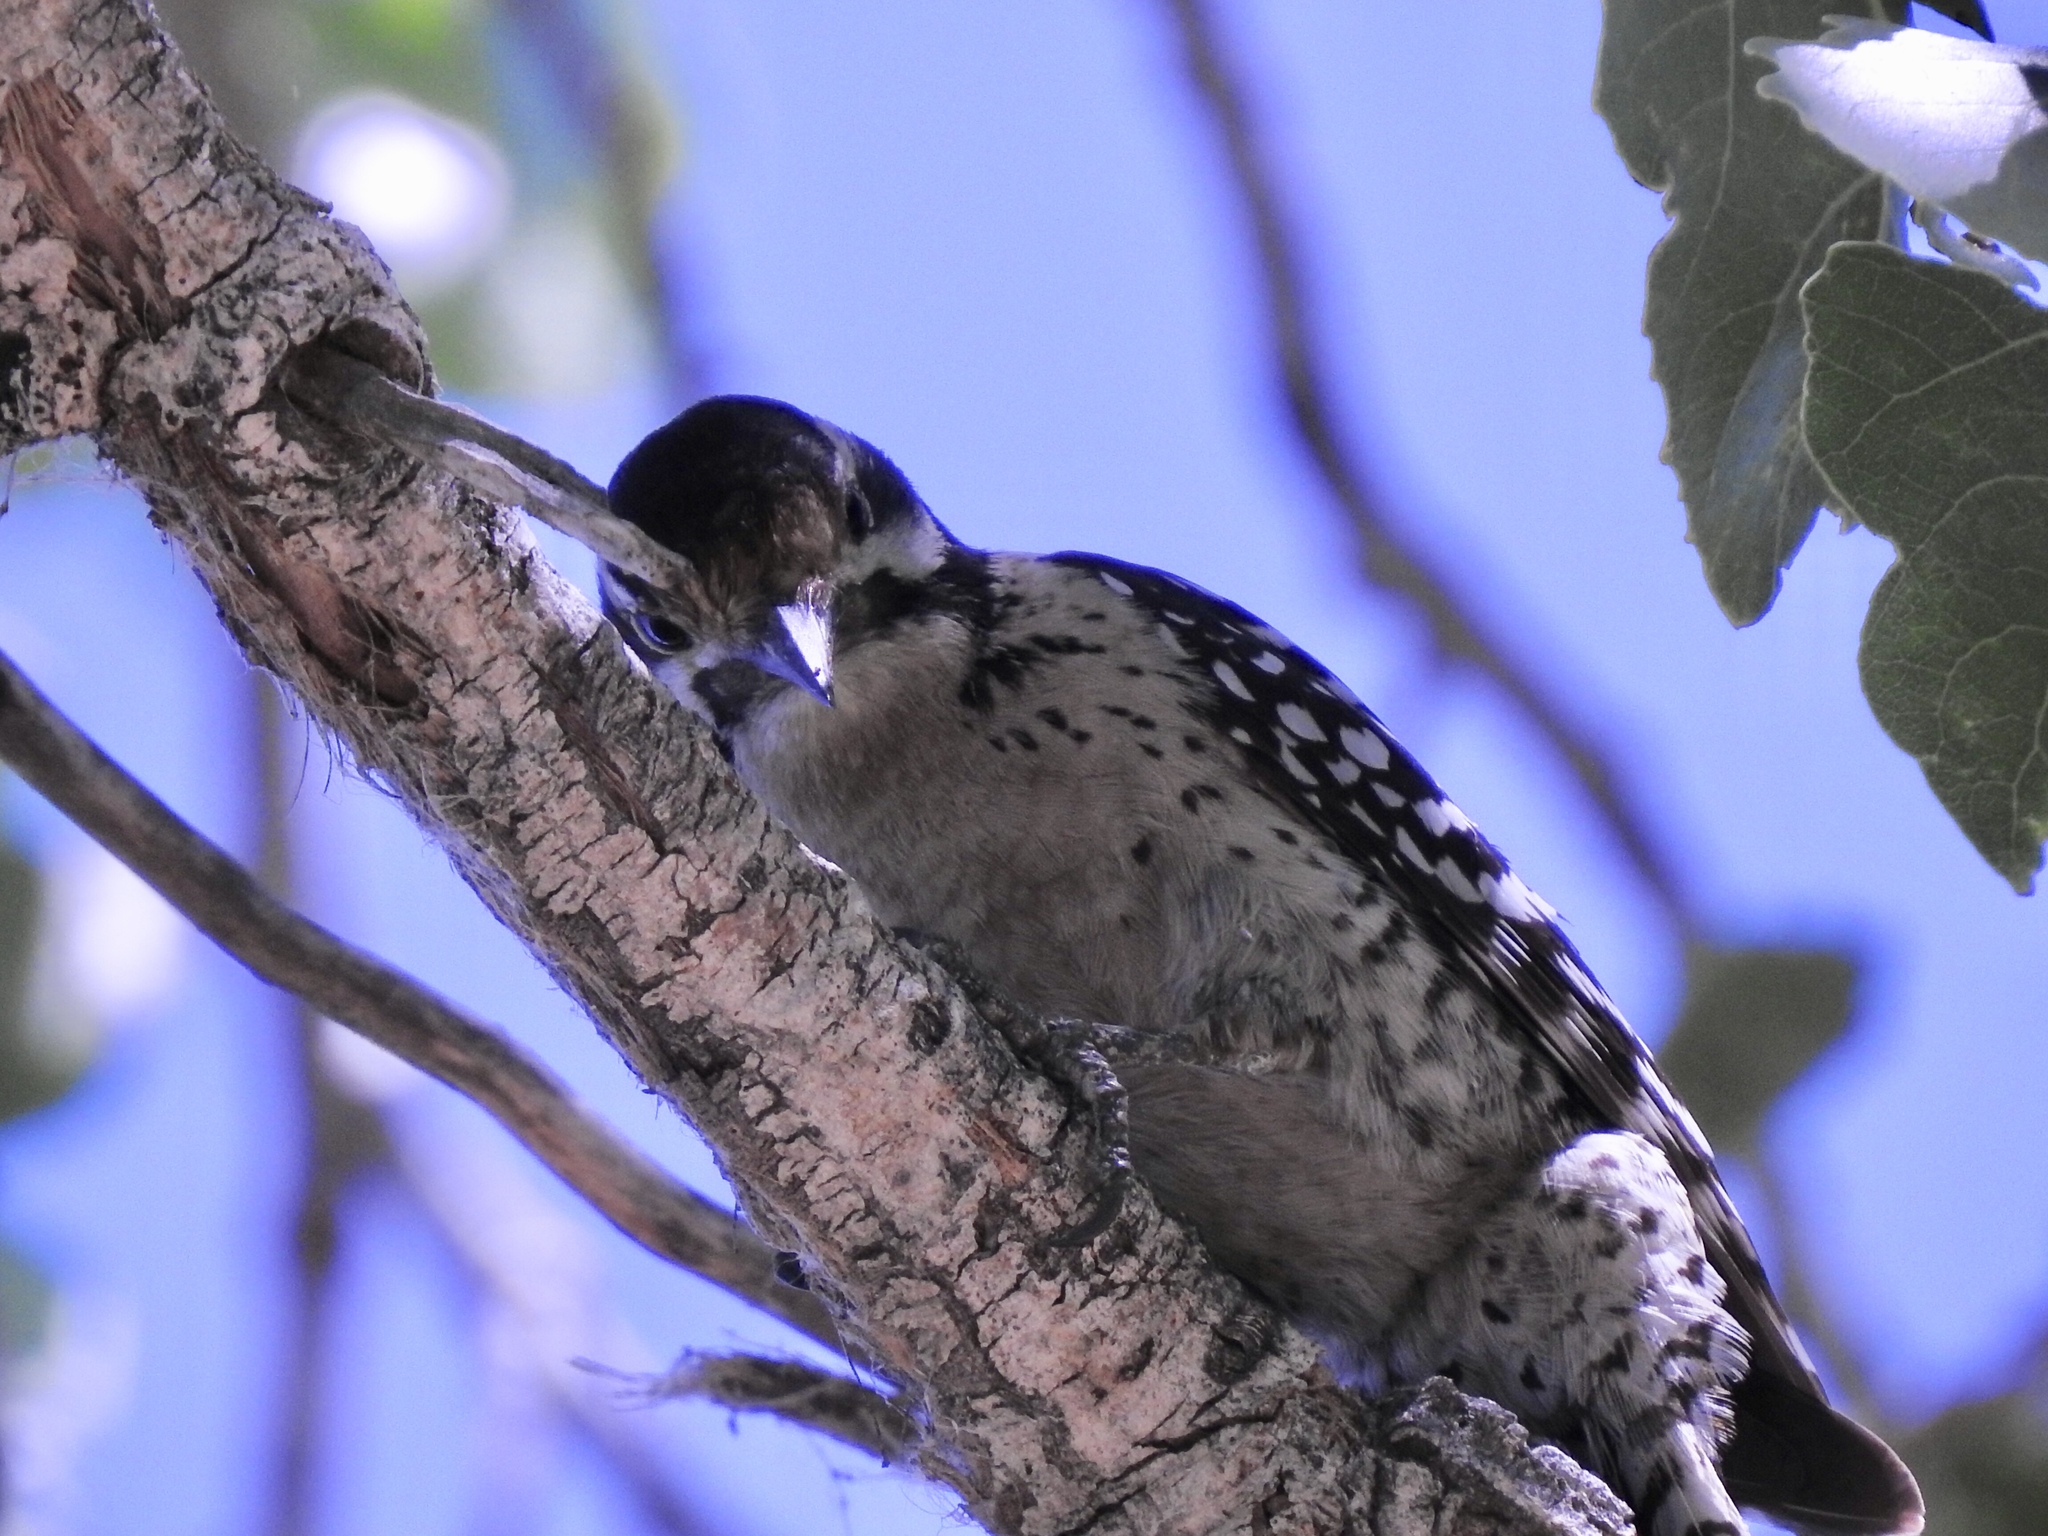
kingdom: Animalia
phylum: Chordata
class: Aves
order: Piciformes
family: Picidae
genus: Dryobates
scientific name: Dryobates scalaris
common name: Ladder-backed woodpecker
